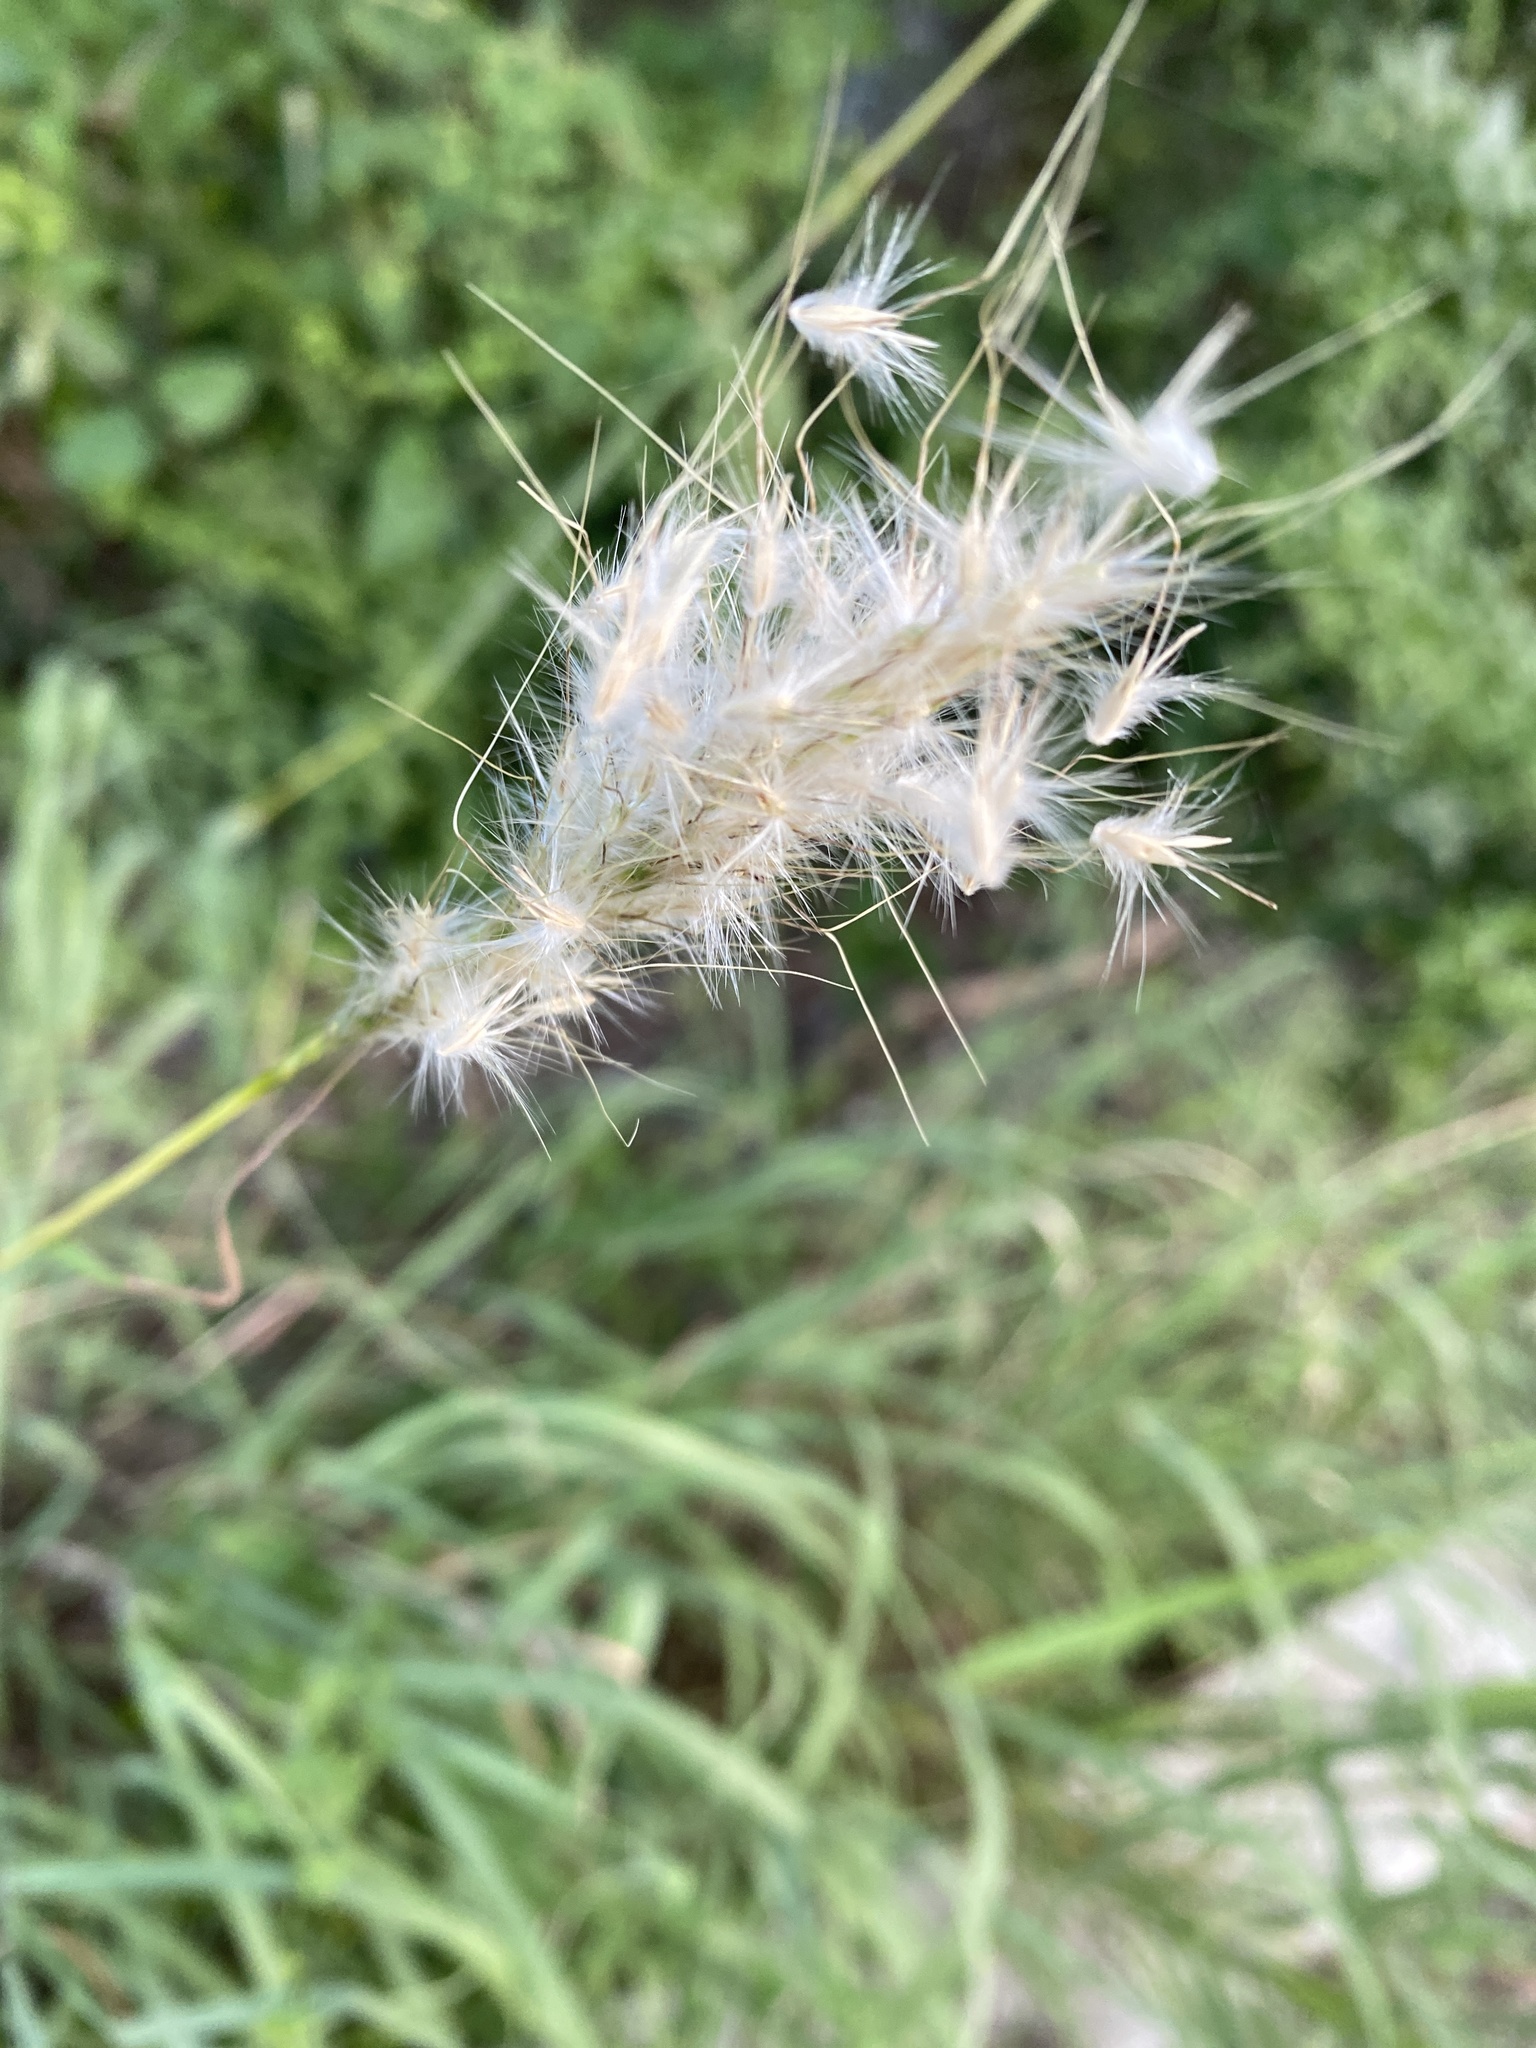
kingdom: Plantae
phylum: Tracheophyta
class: Liliopsida
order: Poales
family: Poaceae
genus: Bothriochloa
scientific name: Bothriochloa torreyana
